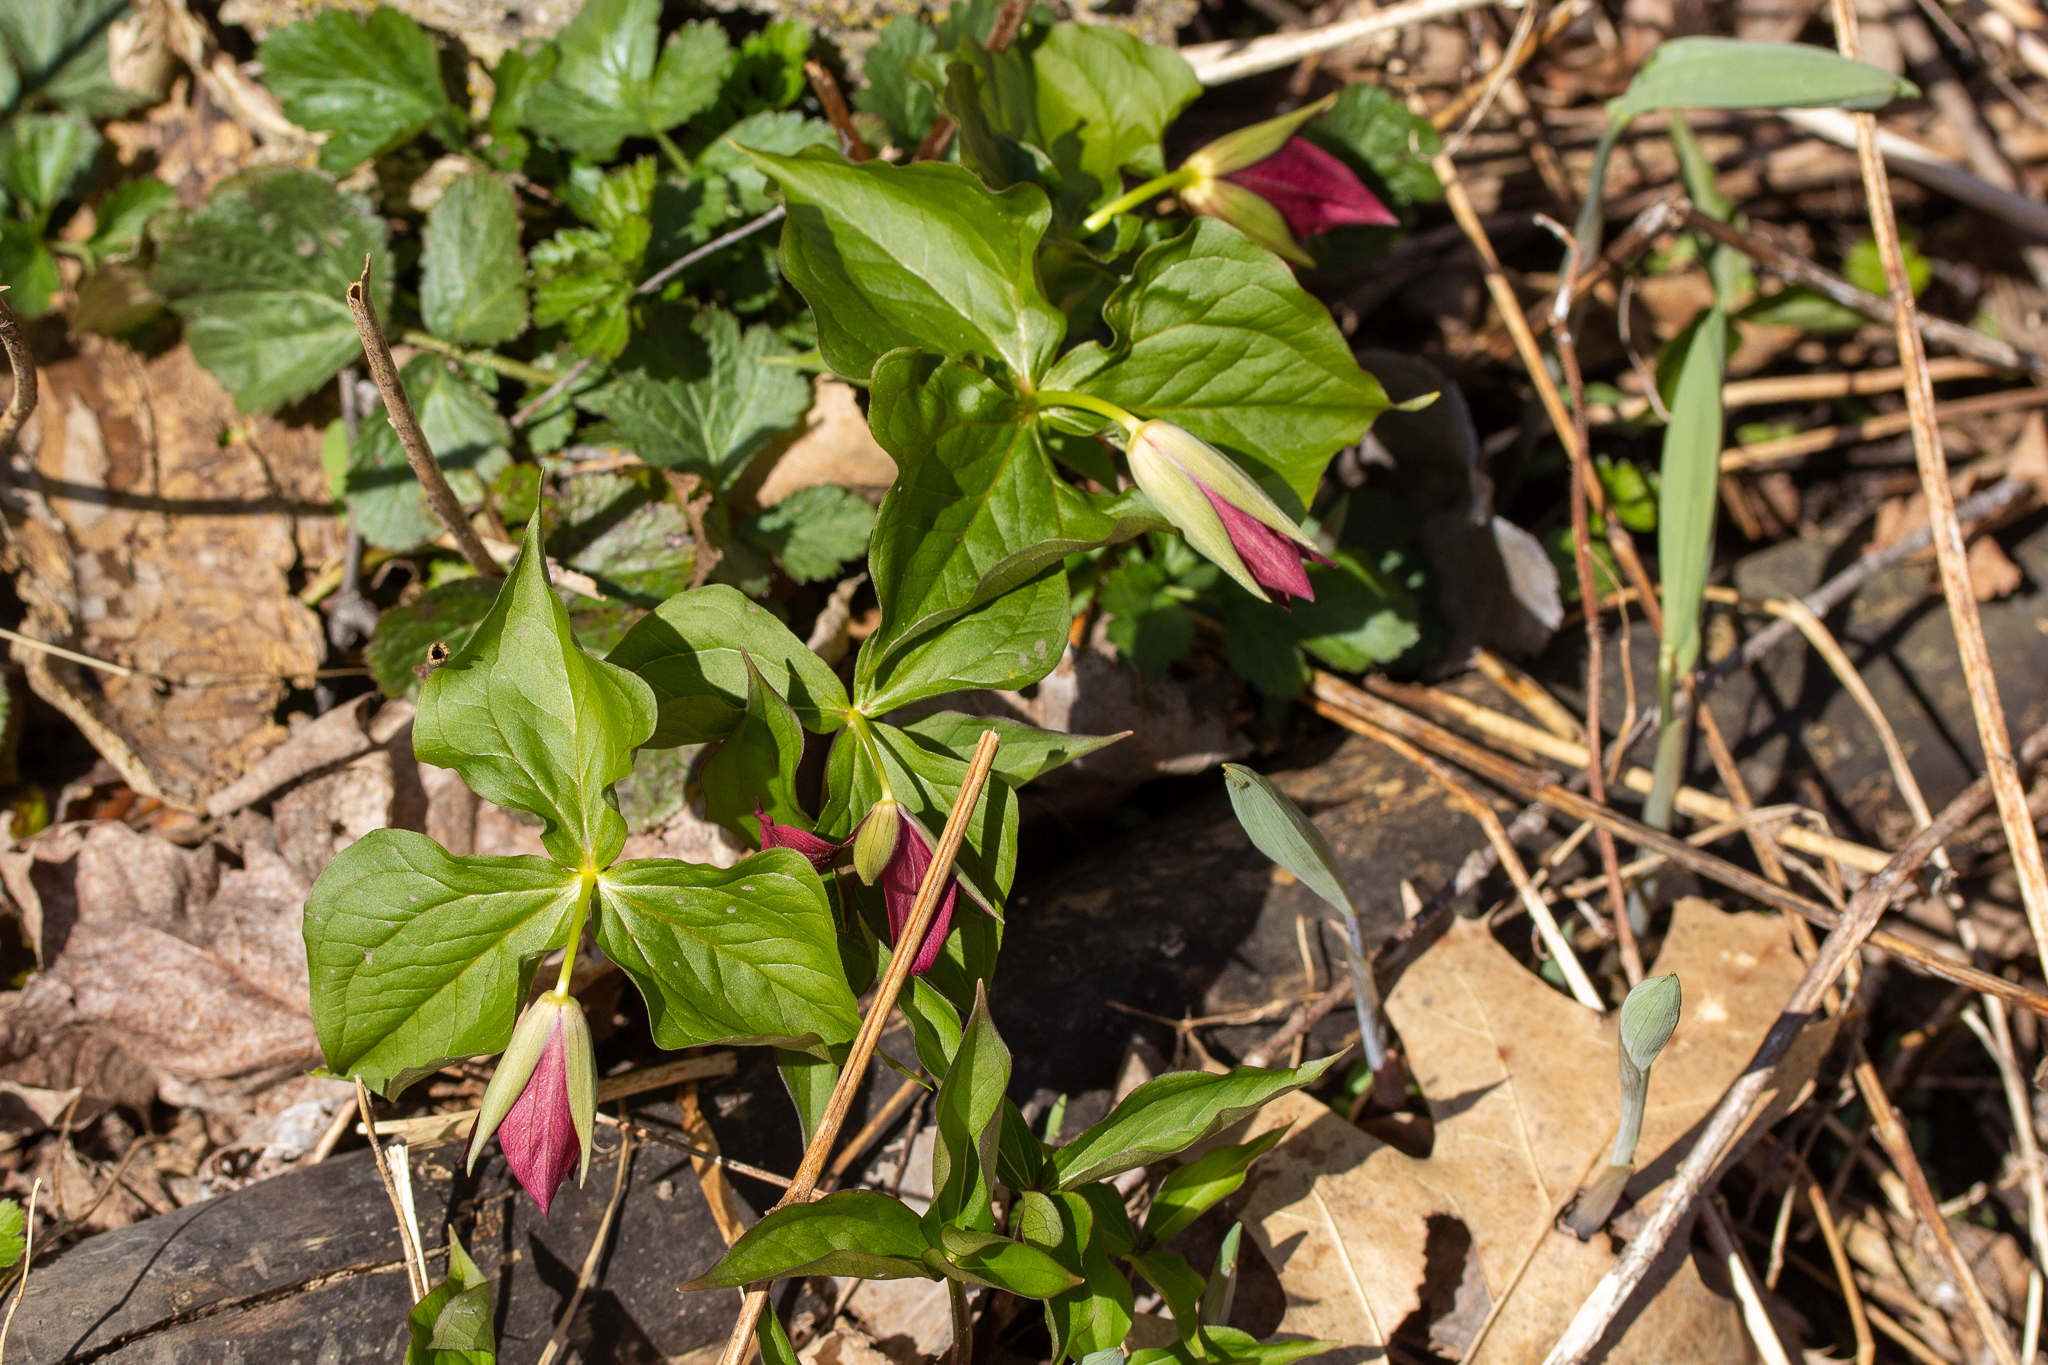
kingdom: Plantae
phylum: Tracheophyta
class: Liliopsida
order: Liliales
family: Melanthiaceae
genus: Trillium
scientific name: Trillium erectum
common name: Purple trillium
